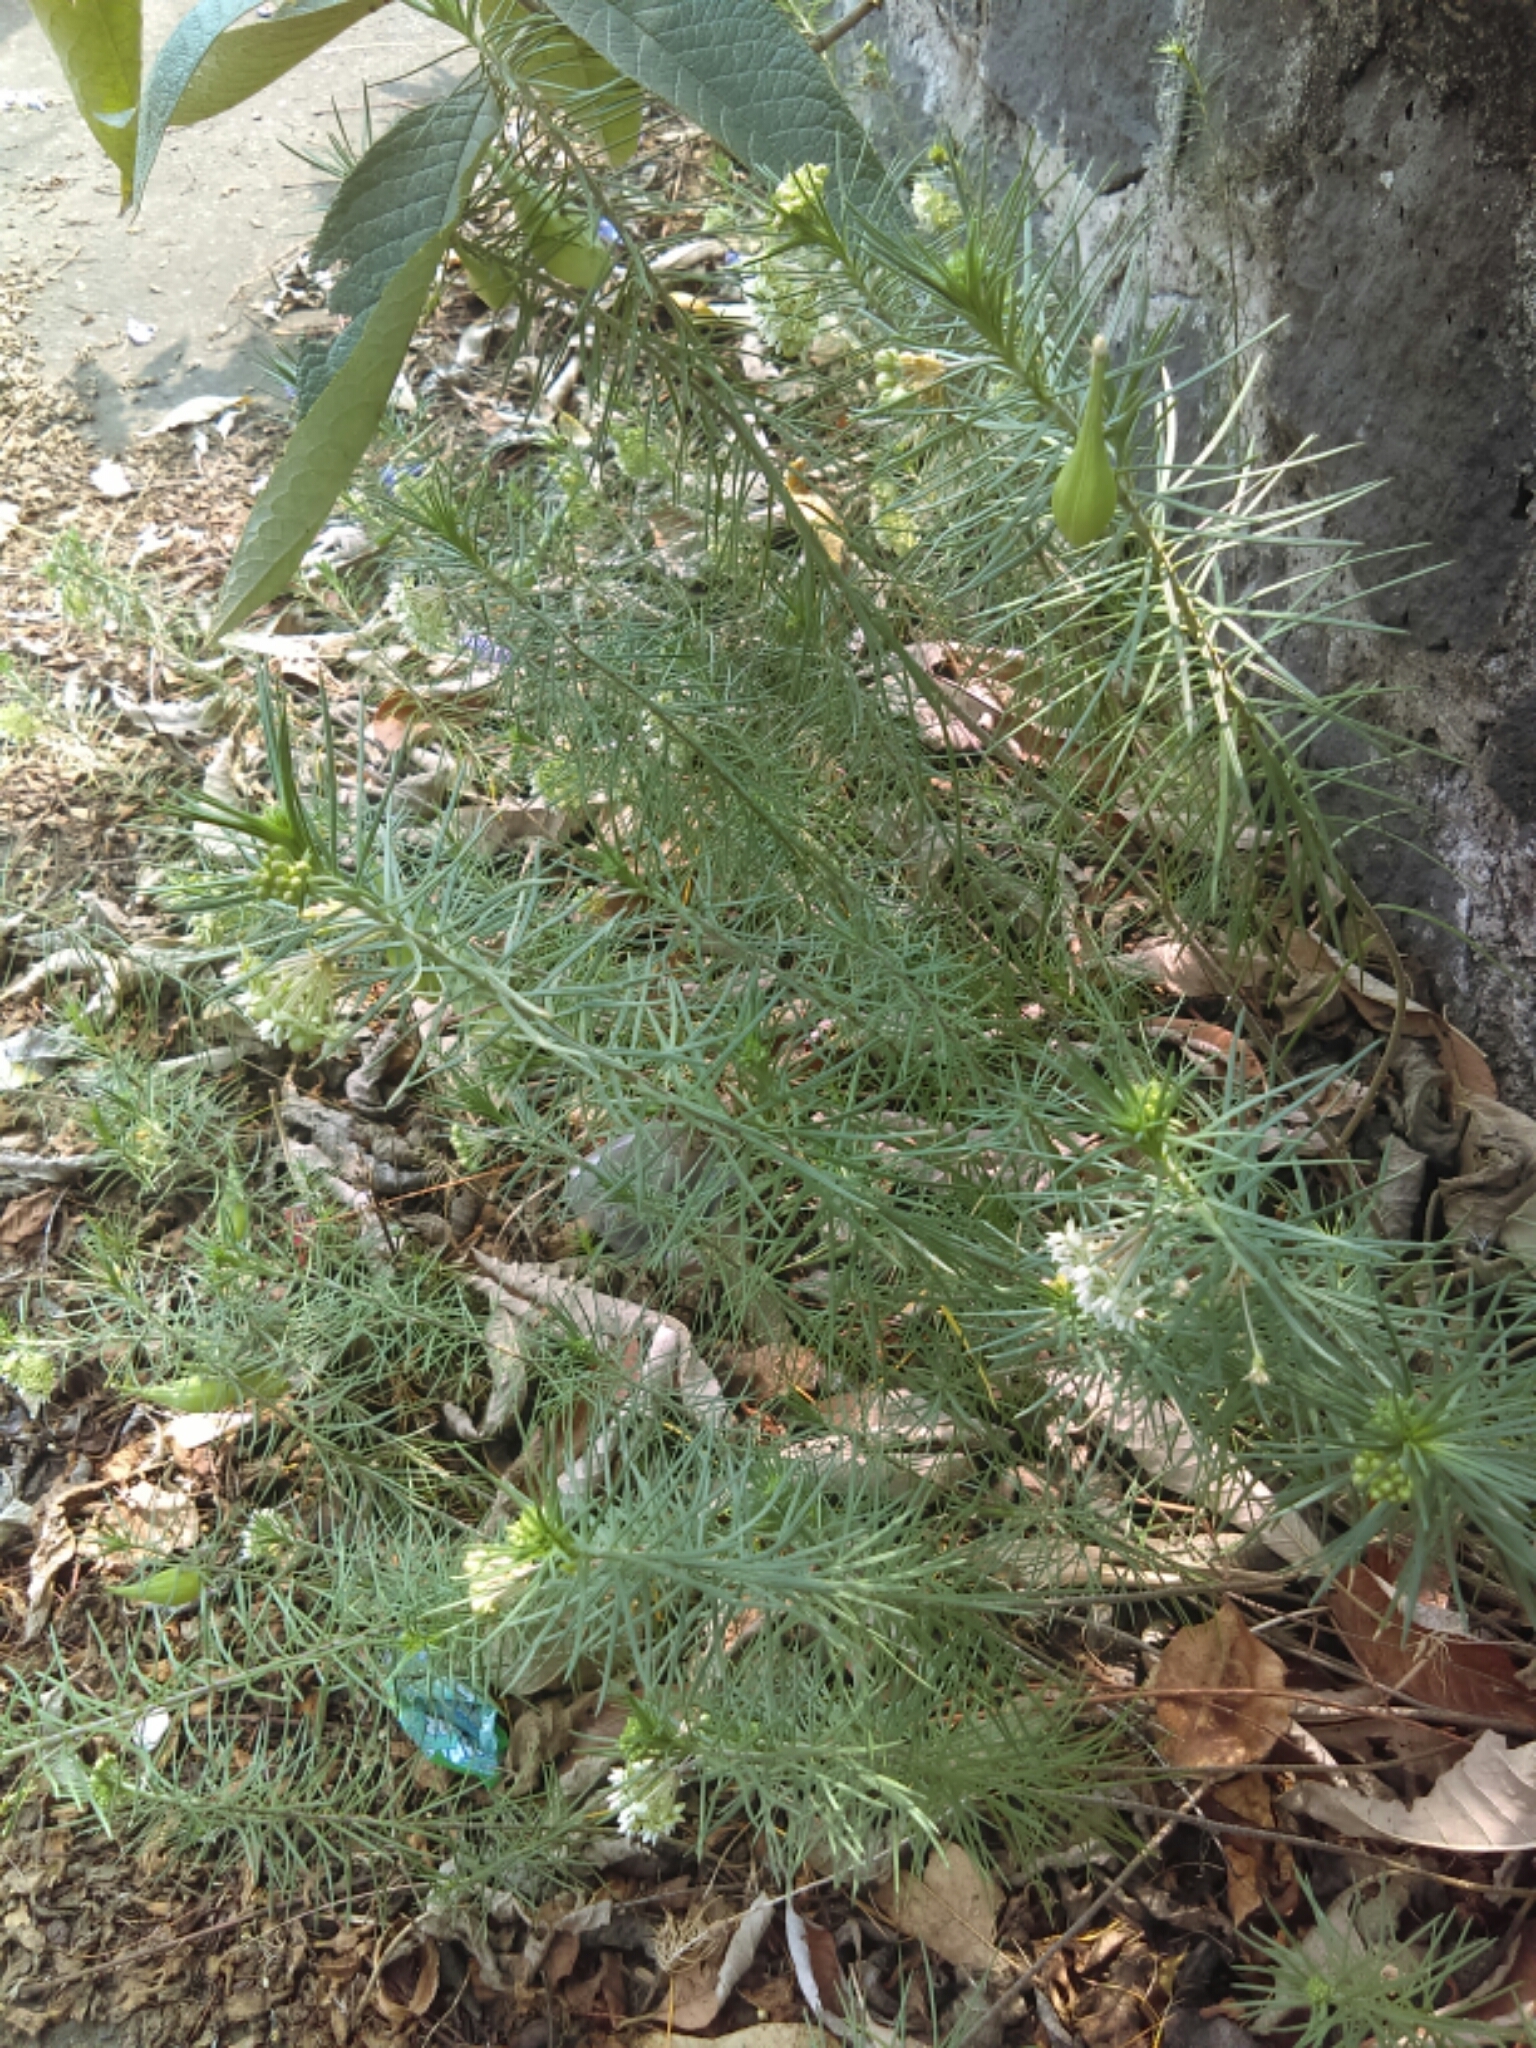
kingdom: Plantae
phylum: Tracheophyta
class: Magnoliopsida
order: Gentianales
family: Apocynaceae
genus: Asclepias
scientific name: Asclepias linaria
